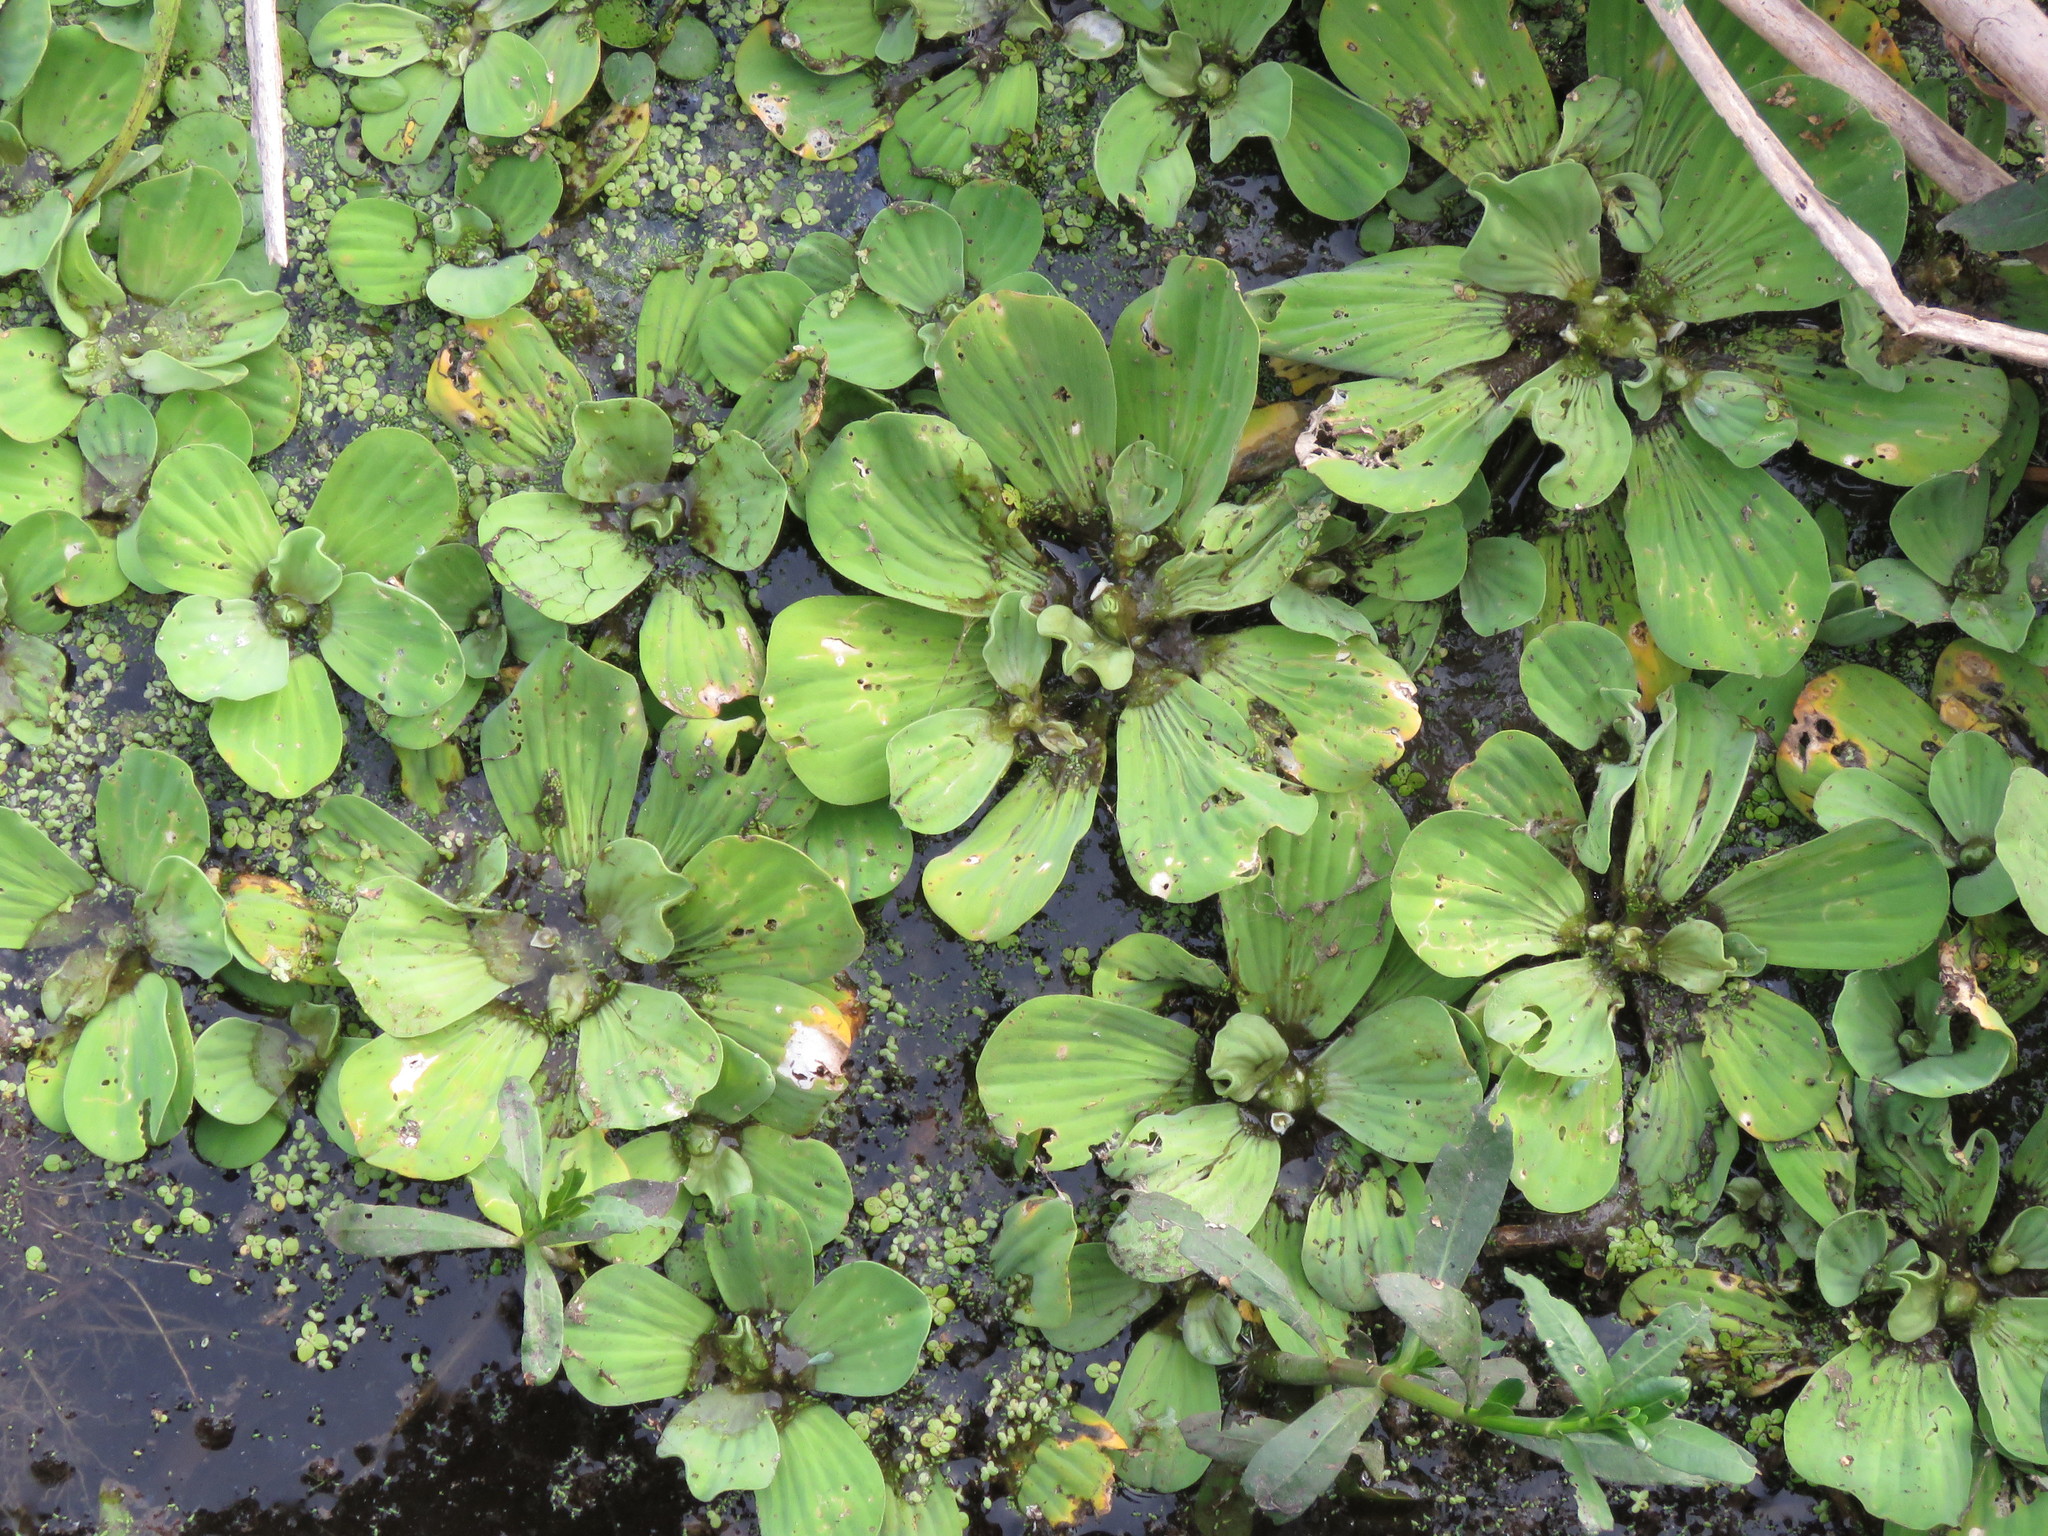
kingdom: Plantae
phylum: Tracheophyta
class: Liliopsida
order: Alismatales
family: Araceae
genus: Pistia
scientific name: Pistia stratiotes
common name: Water lettuce
